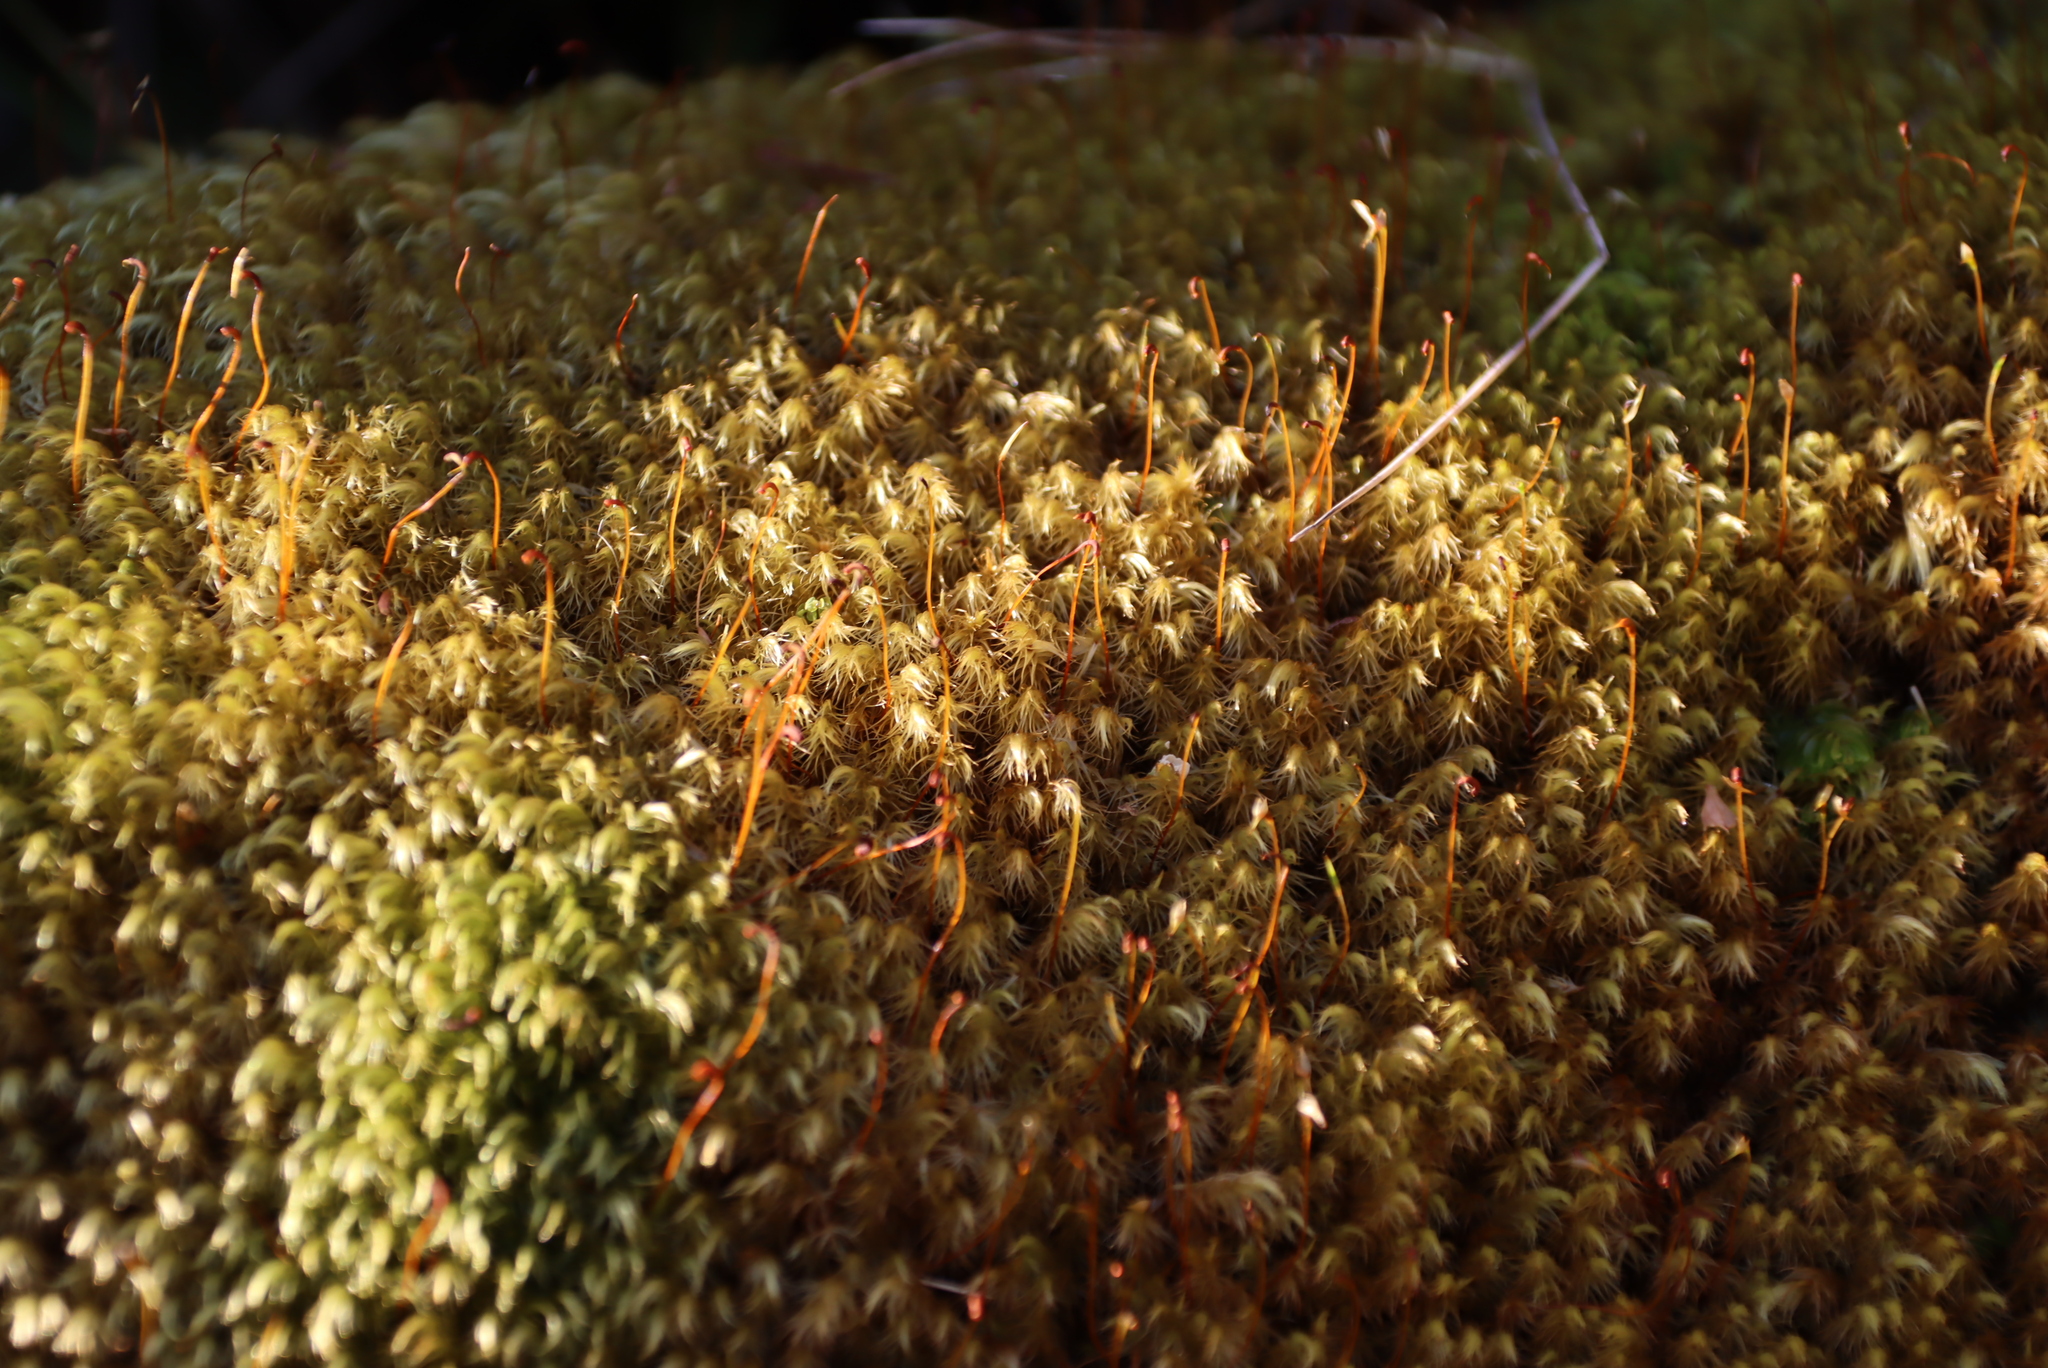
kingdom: Plantae
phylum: Bryophyta
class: Bryopsida
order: Dicranales
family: Dicranaceae
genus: Dicranoloma
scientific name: Dicranoloma billardieri
